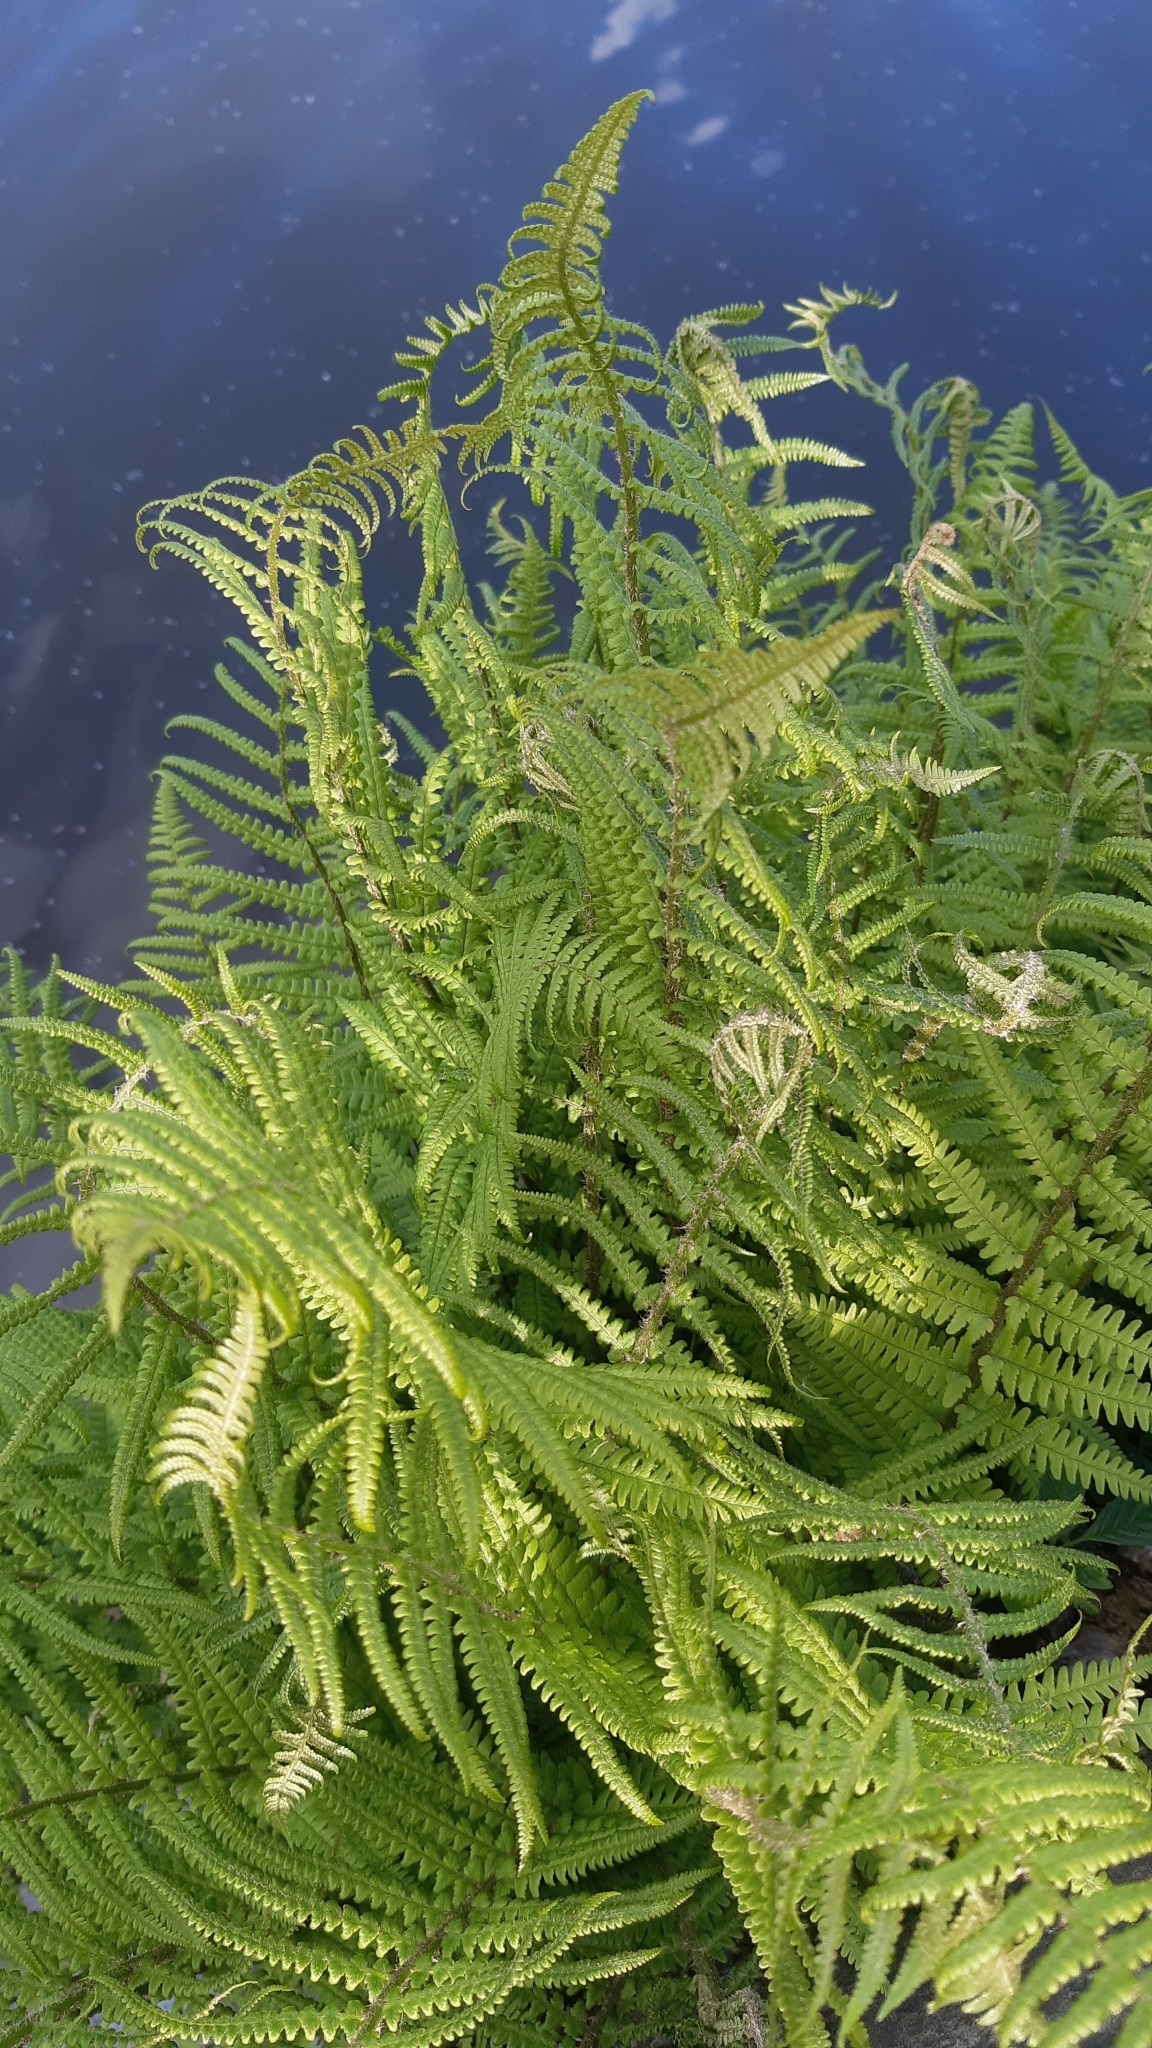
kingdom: Plantae
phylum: Tracheophyta
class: Polypodiopsida
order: Polypodiales
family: Dryopteridaceae
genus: Dryopteris
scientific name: Dryopteris filix-mas
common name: Male fern
